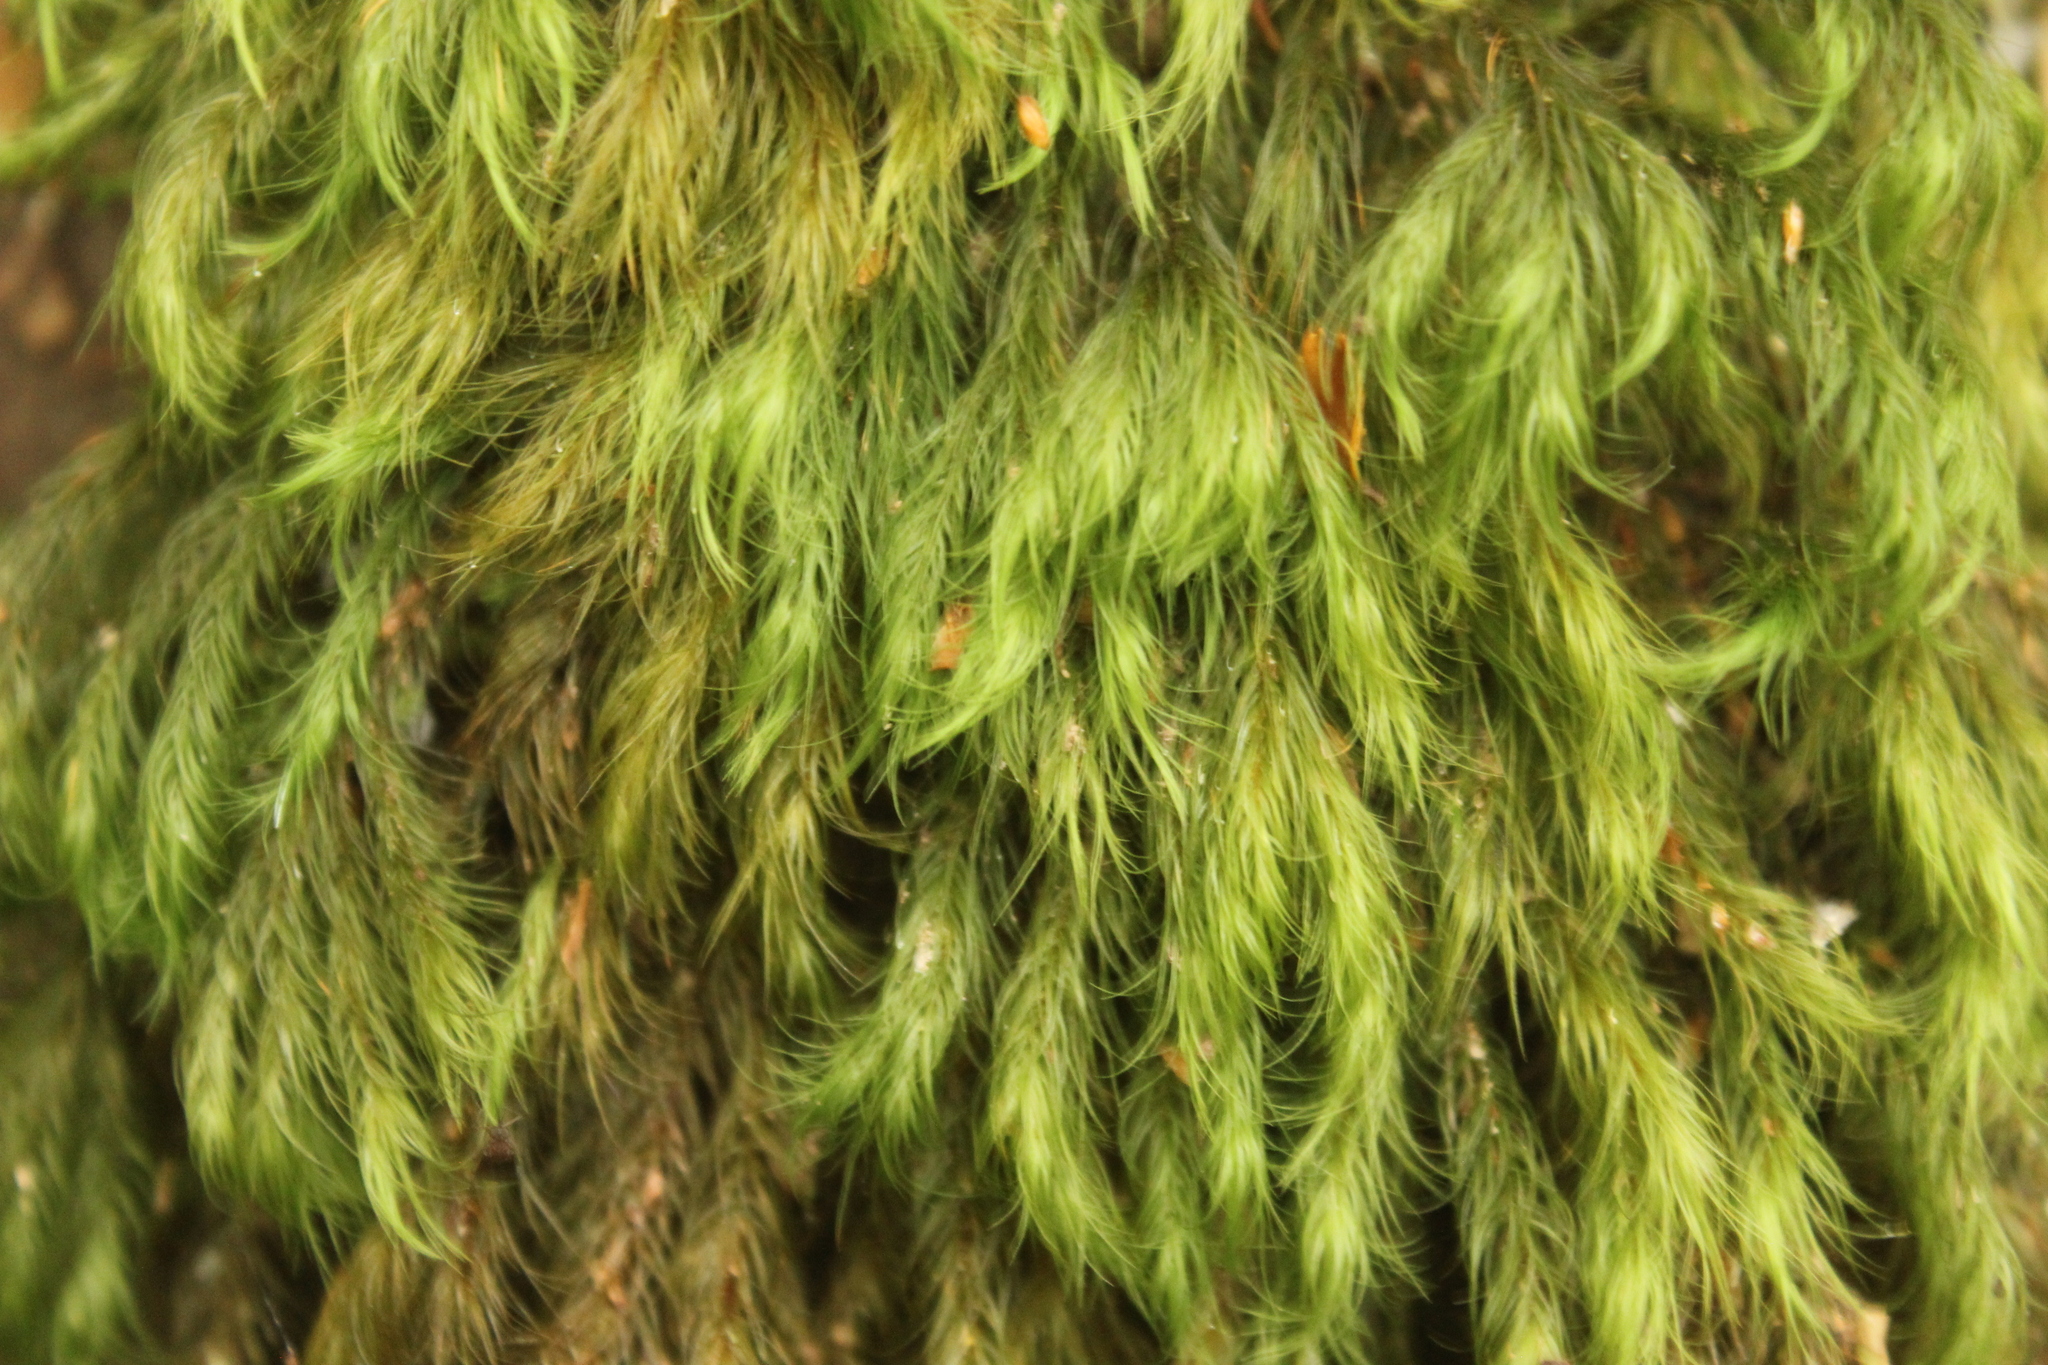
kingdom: Plantae
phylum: Bryophyta
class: Bryopsida
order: Rhizogoniales
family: Calomniaceae
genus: Cryptopodium
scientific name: Cryptopodium bartramioides
